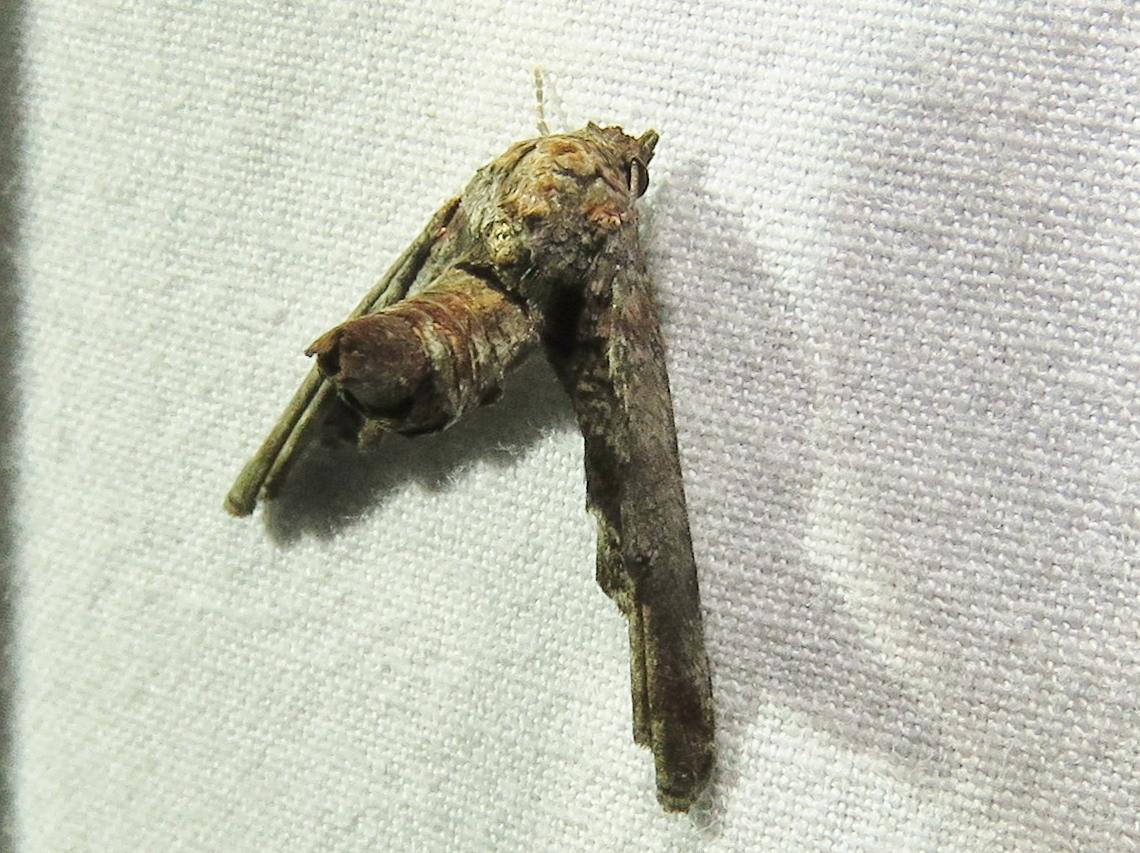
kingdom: Animalia
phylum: Arthropoda
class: Insecta
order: Lepidoptera
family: Euteliidae
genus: Marathyssa
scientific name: Marathyssa inficita
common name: Dark marathyssa moth
